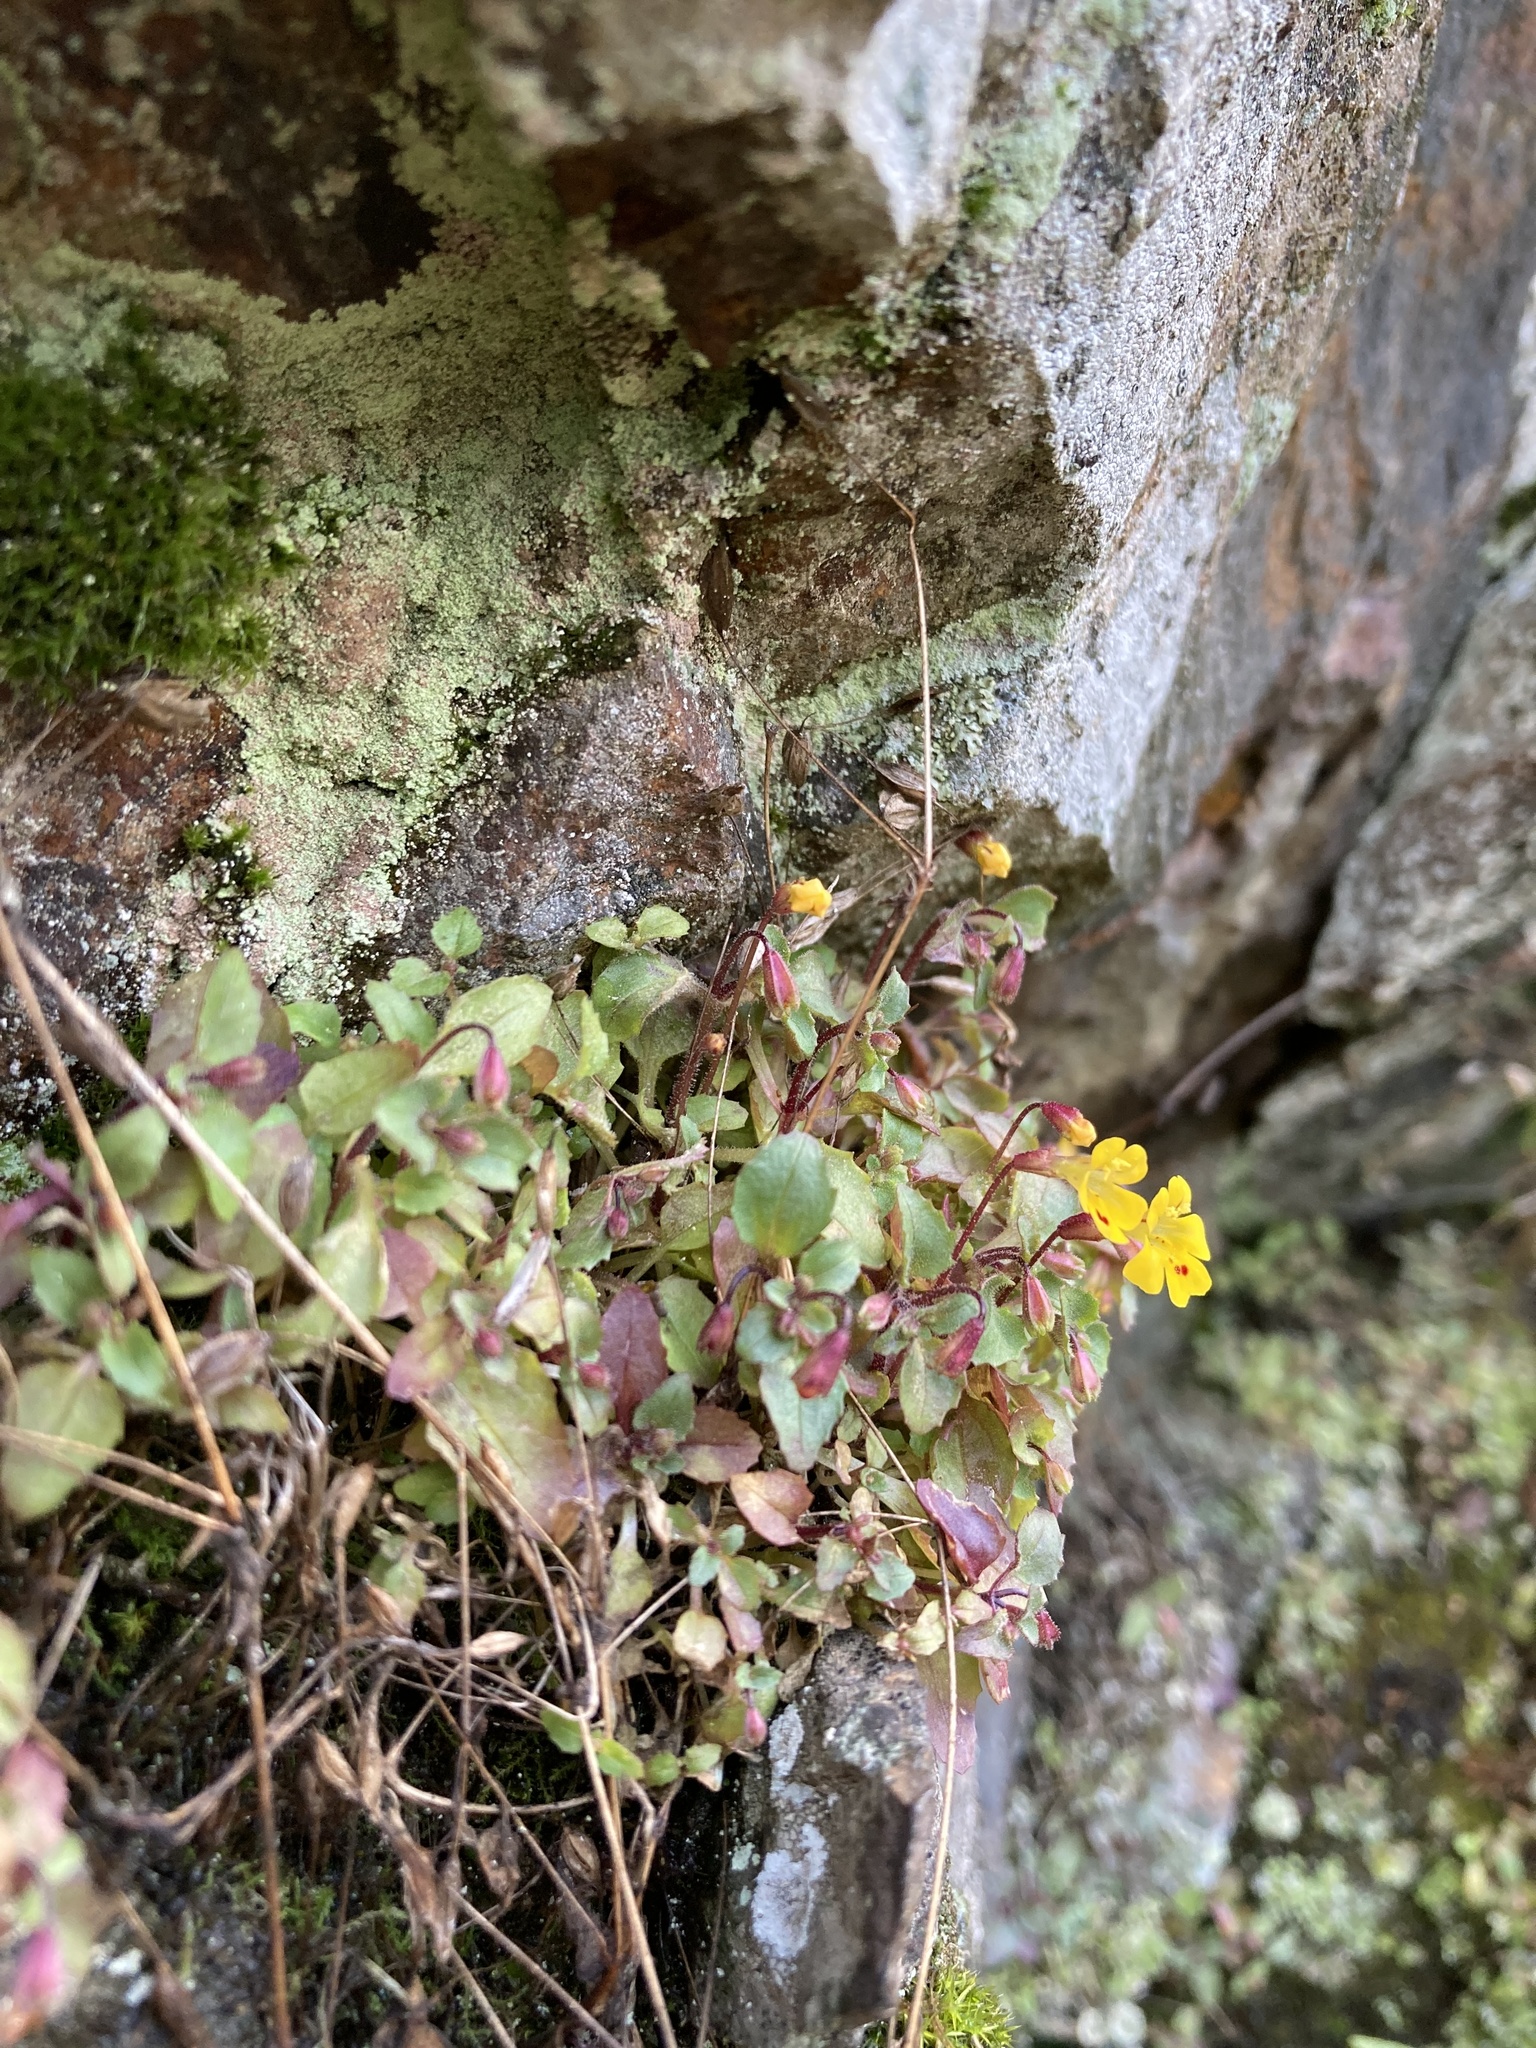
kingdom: Plantae
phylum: Tracheophyta
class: Magnoliopsida
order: Lamiales
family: Phrymaceae
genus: Erythranthe
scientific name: Erythranthe alsinoides
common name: Chickweed monkeyflower
